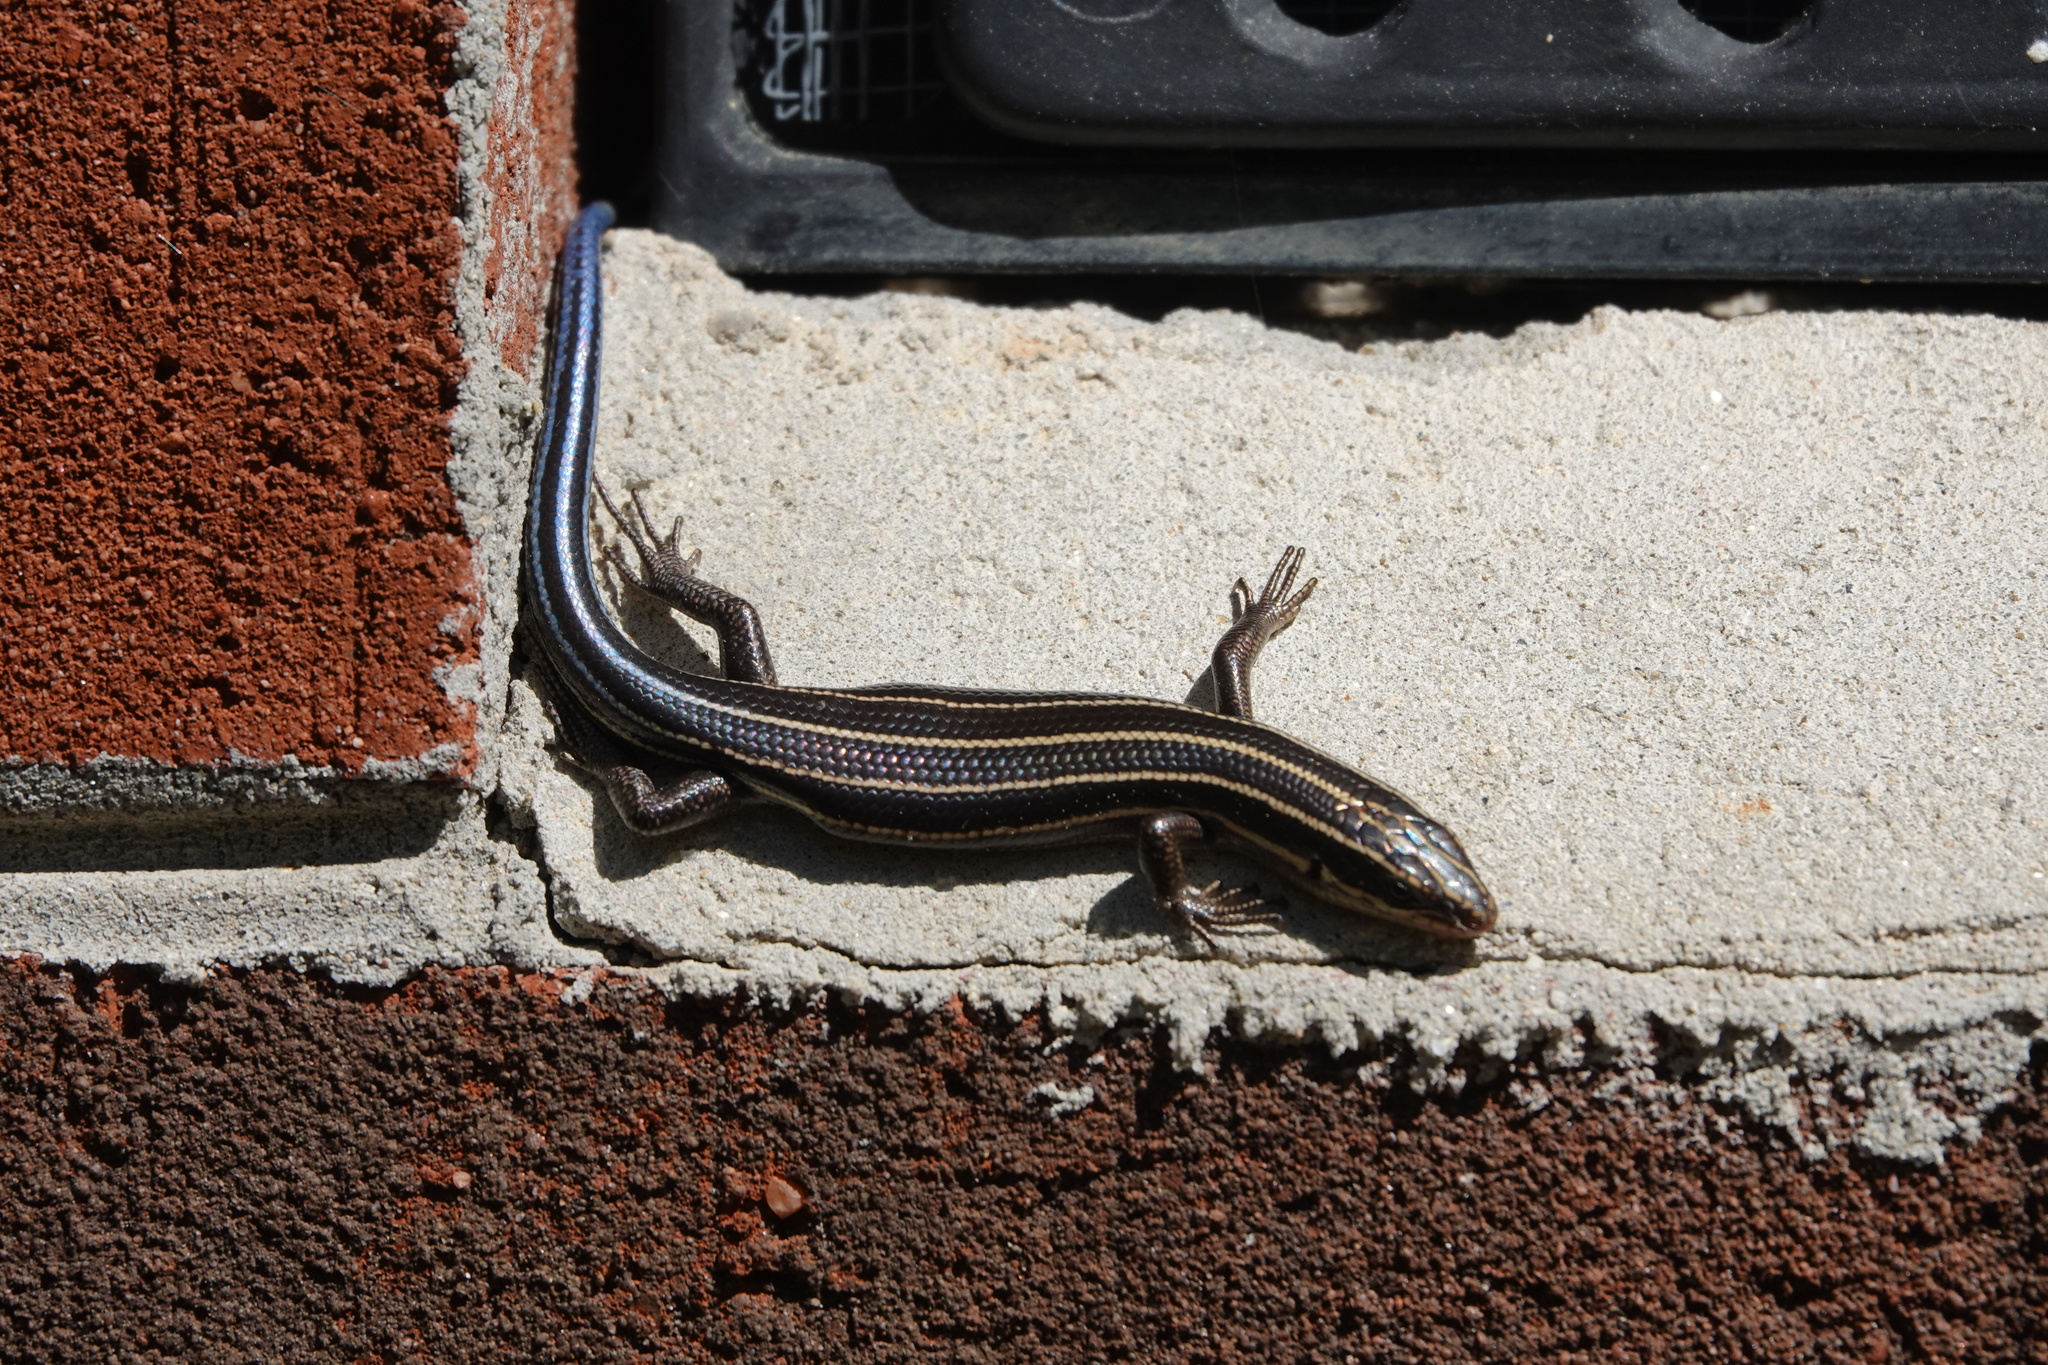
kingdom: Animalia
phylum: Chordata
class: Squamata
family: Scincidae
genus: Plestiodon
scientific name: Plestiodon fasciatus
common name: Five-lined skink
